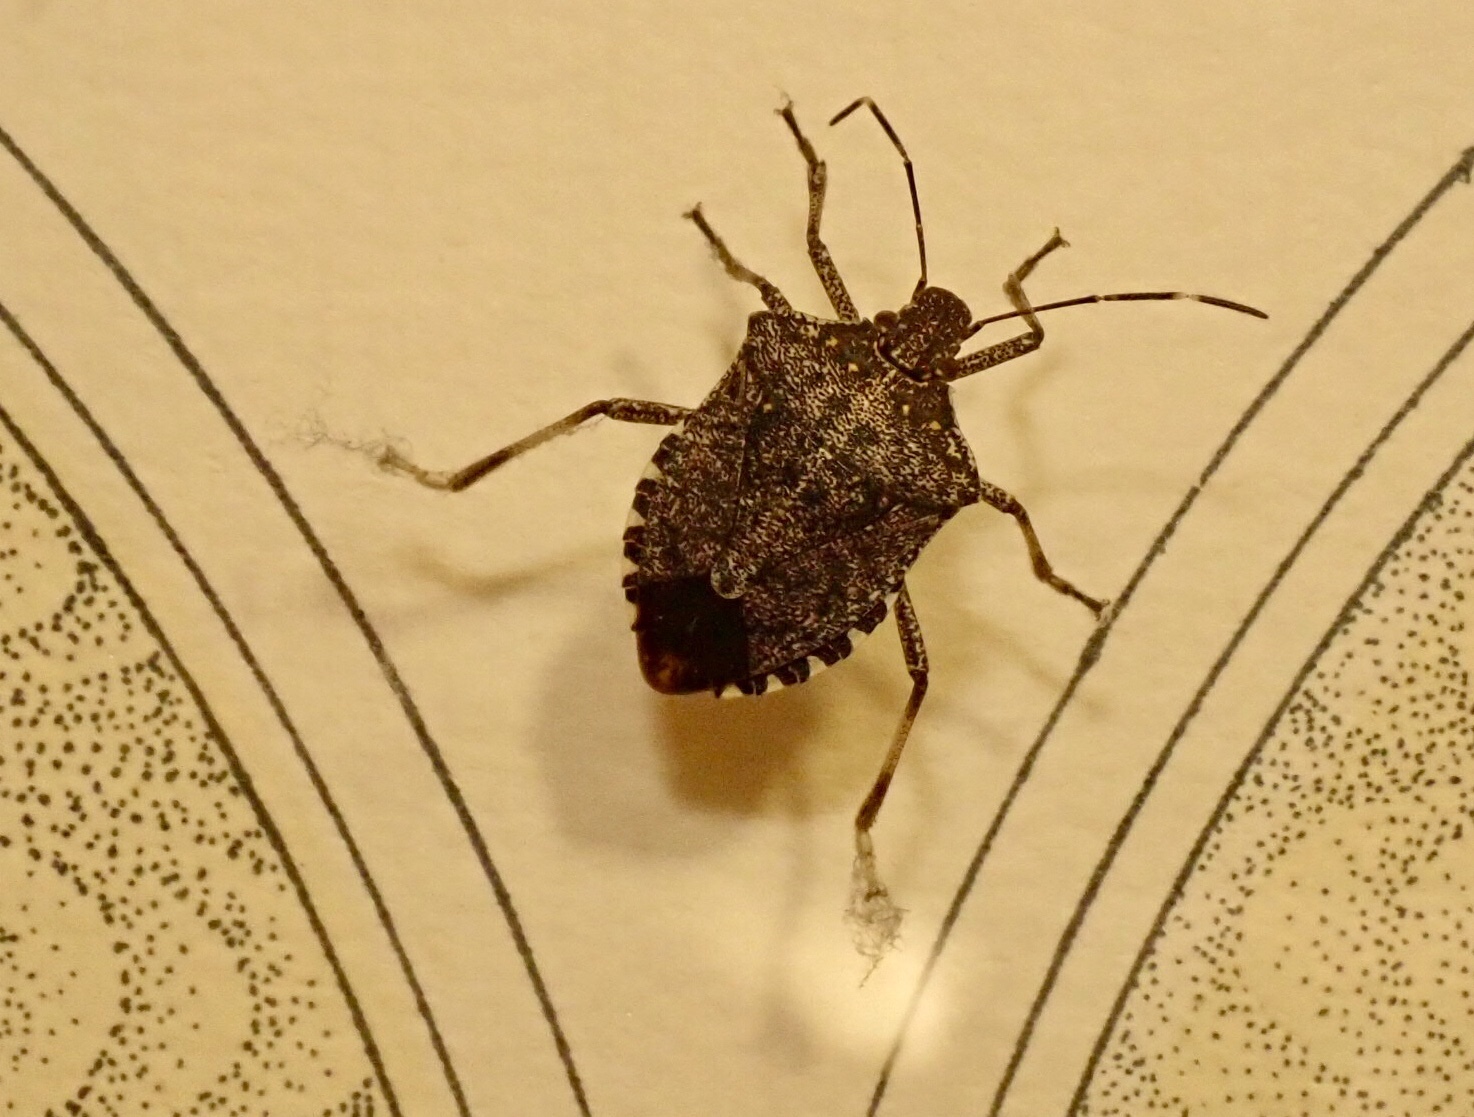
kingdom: Animalia
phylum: Arthropoda
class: Insecta
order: Hemiptera
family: Pentatomidae
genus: Halyomorpha
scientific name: Halyomorpha halys
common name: Brown marmorated stink bug
